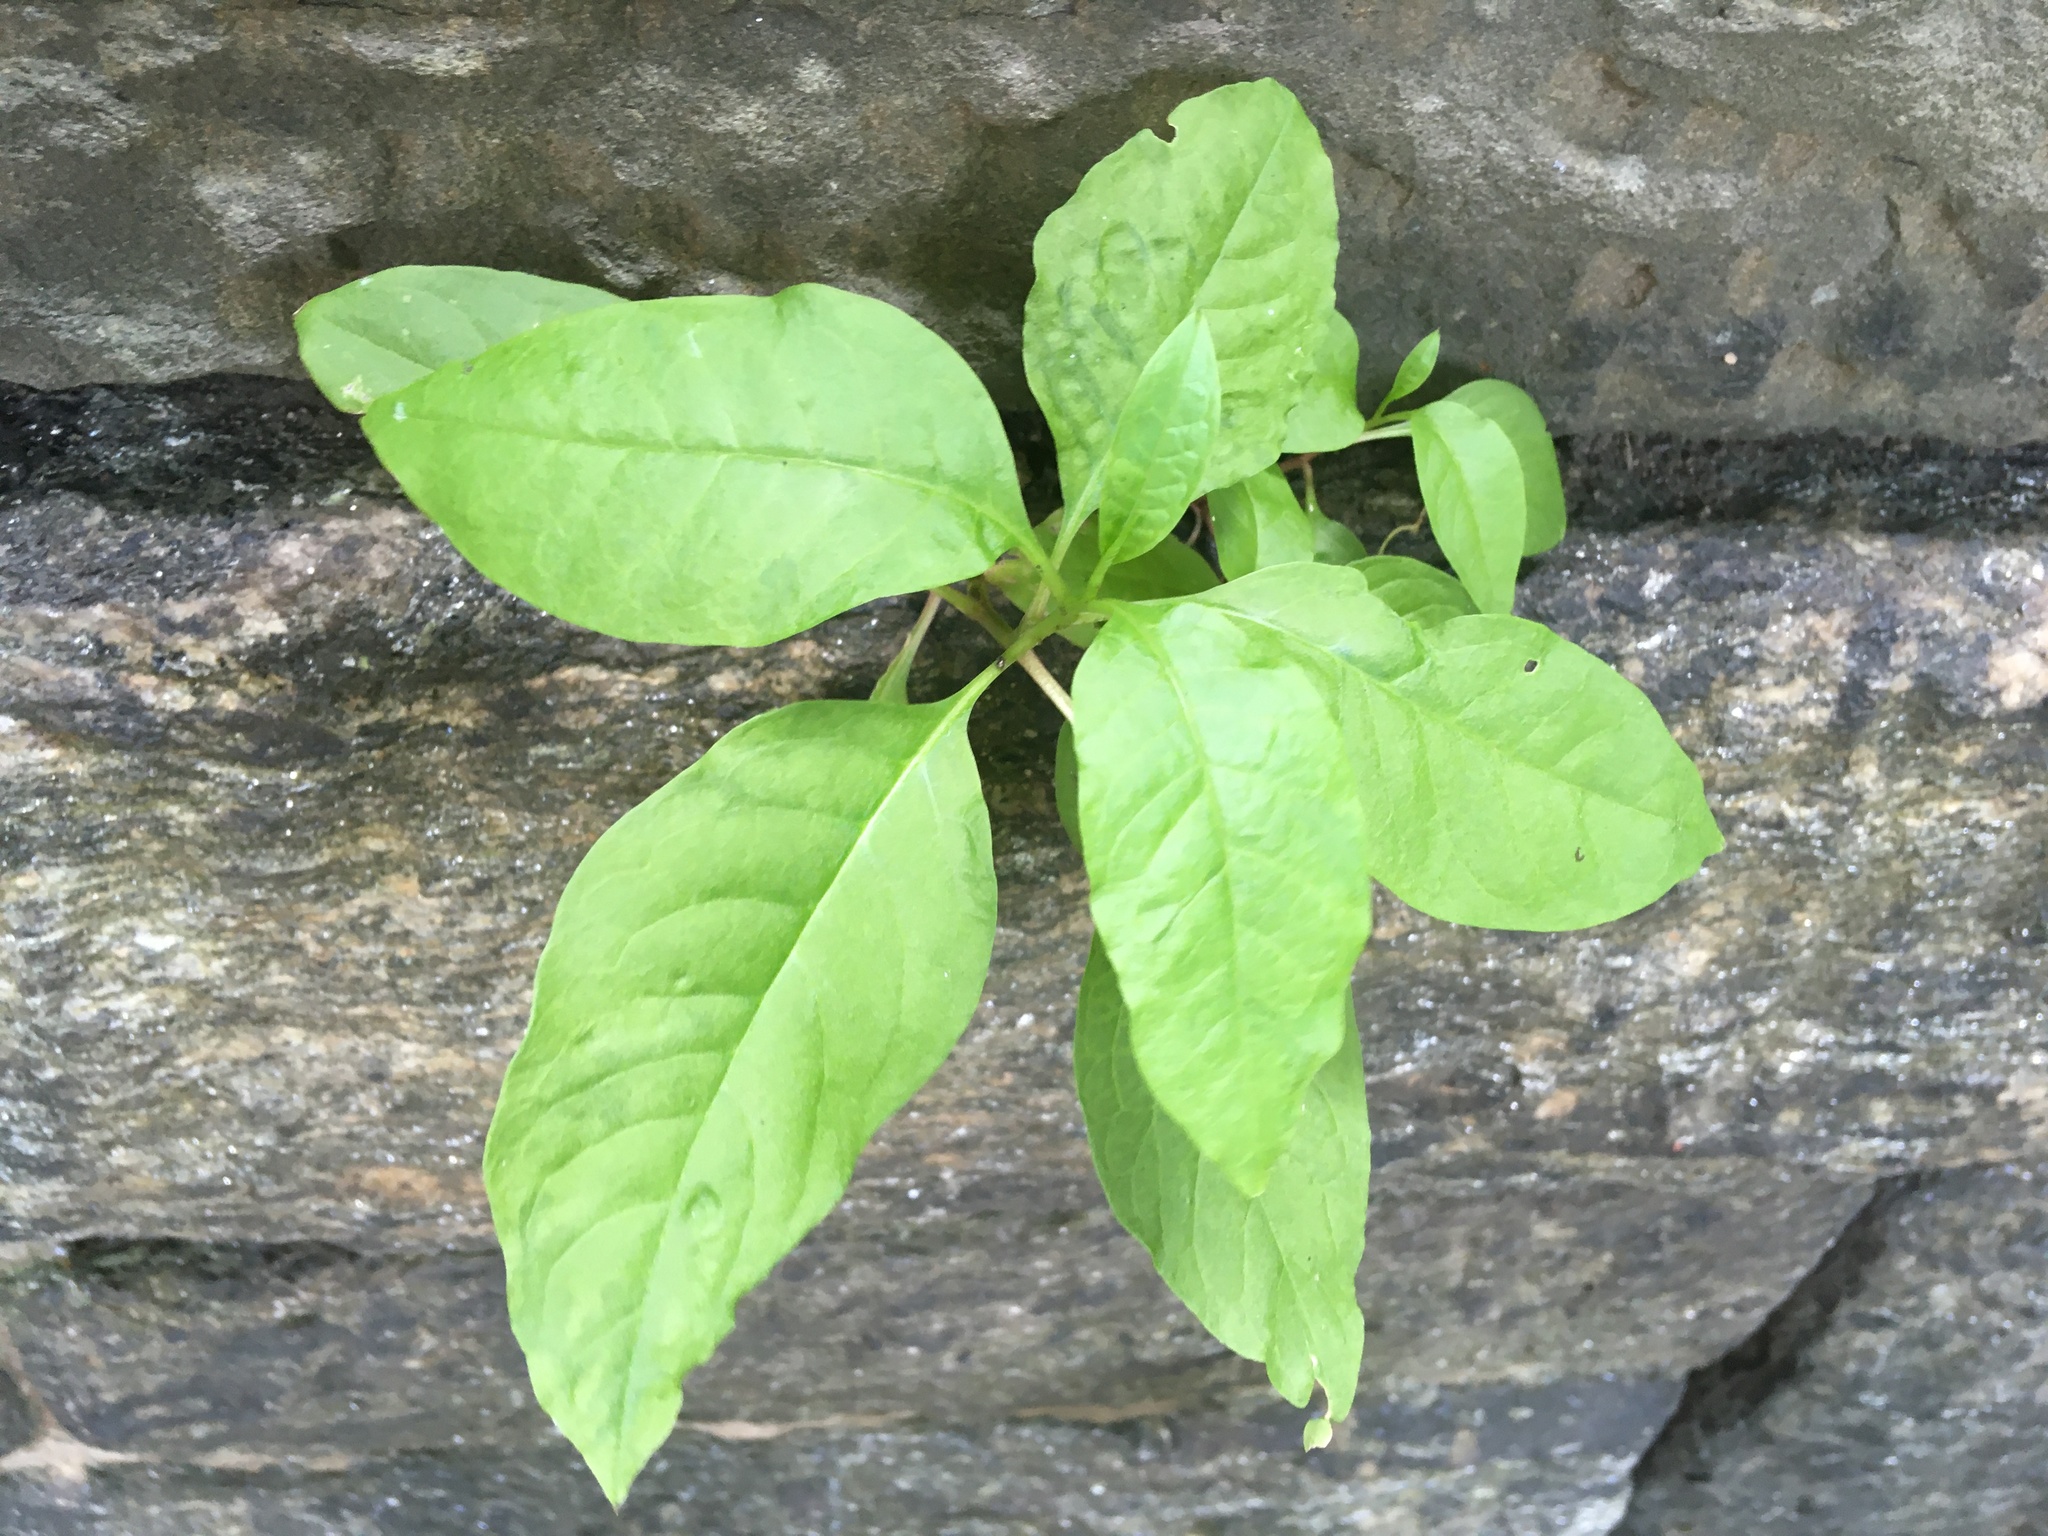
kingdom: Plantae
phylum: Tracheophyta
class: Magnoliopsida
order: Caryophyllales
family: Phytolaccaceae
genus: Phytolacca
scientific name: Phytolacca americana
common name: American pokeweed
